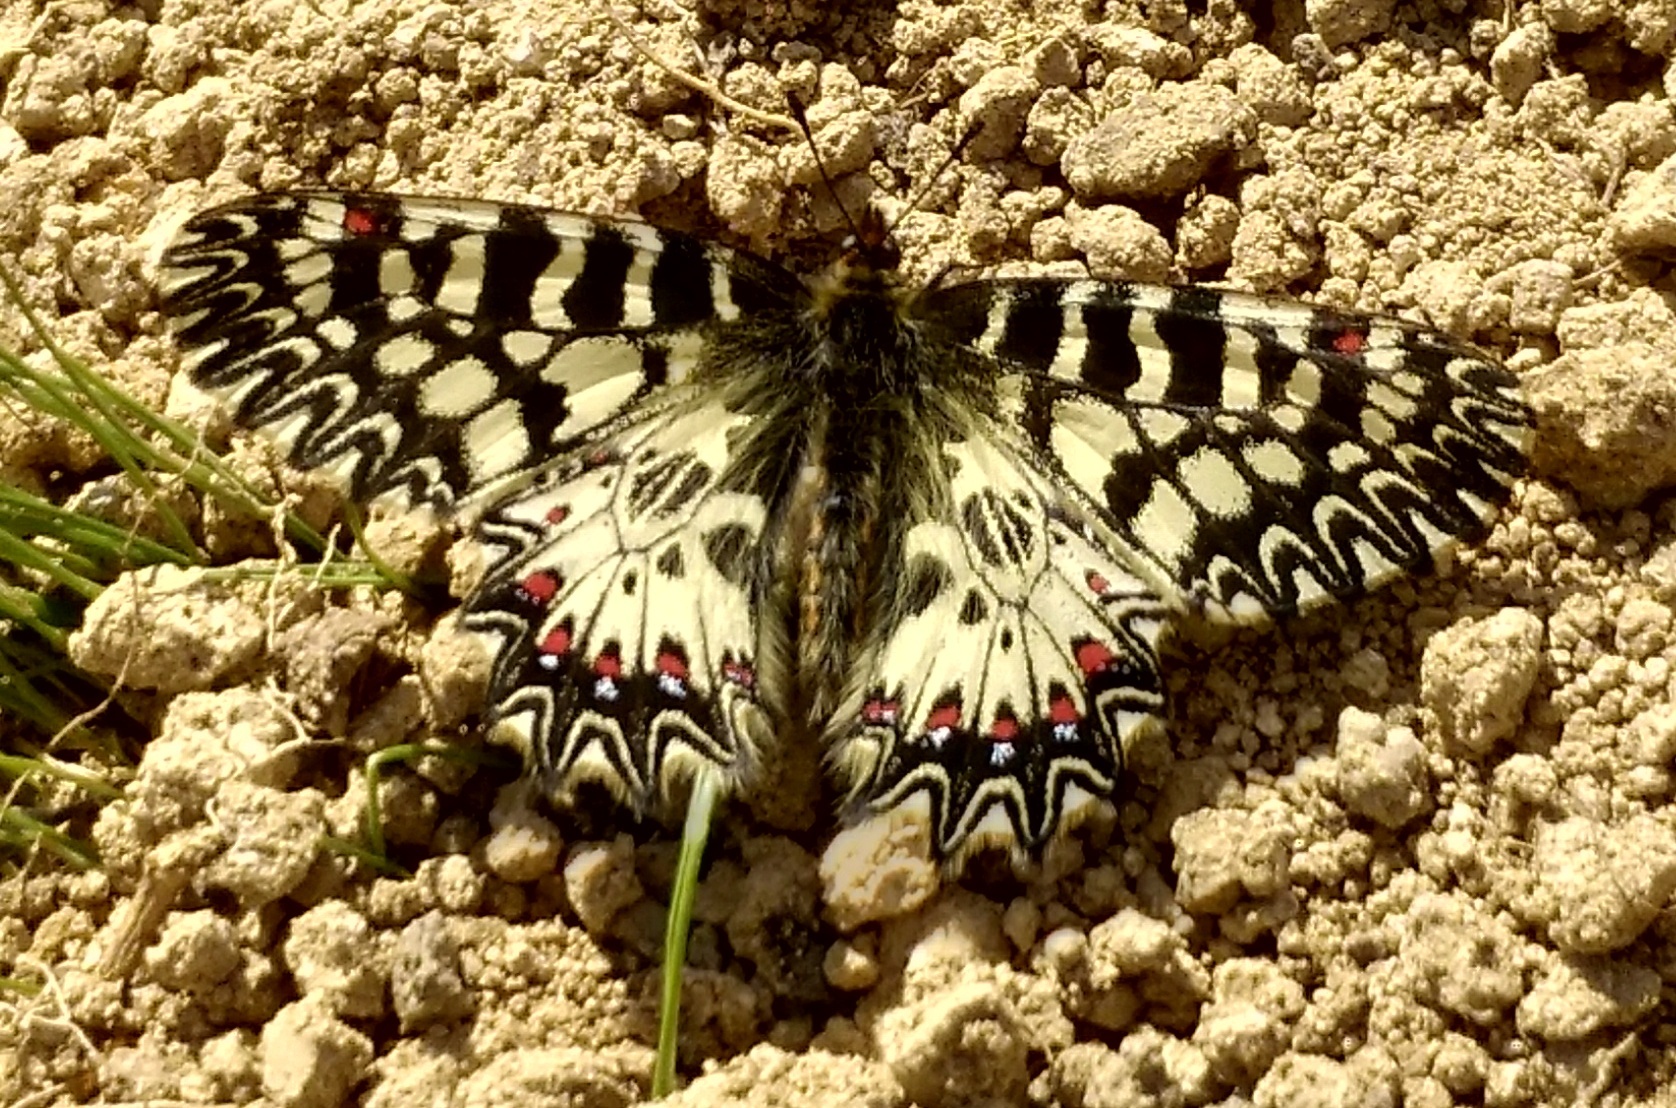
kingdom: Animalia
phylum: Arthropoda
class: Insecta
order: Lepidoptera
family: Papilionidae
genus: Zerynthia
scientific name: Zerynthia polyxena
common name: Southern festoon
